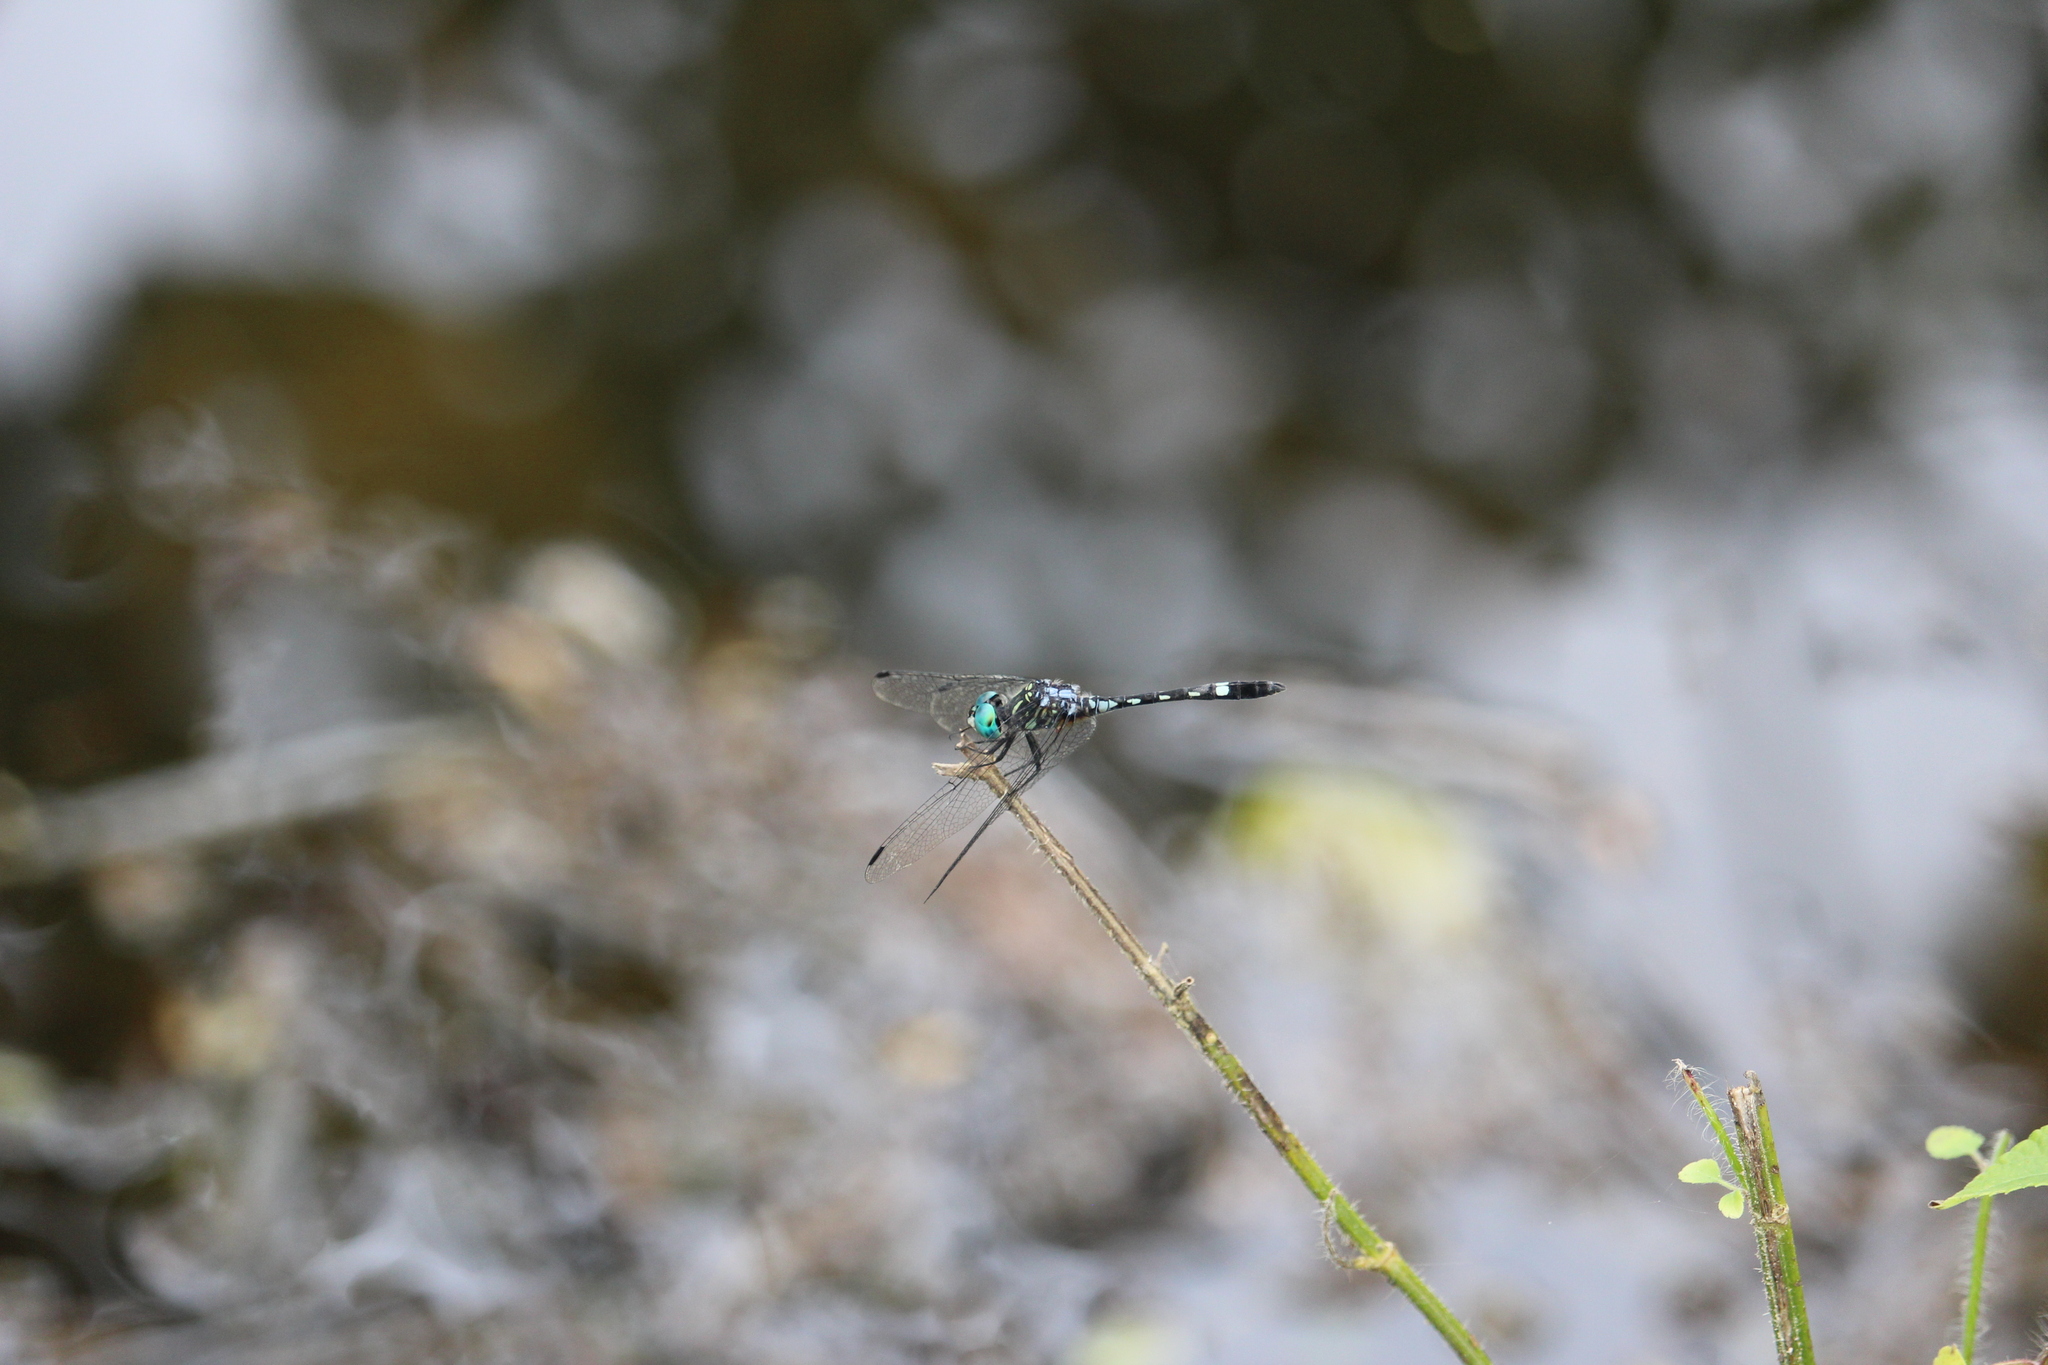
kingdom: Animalia
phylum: Arthropoda
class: Insecta
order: Odonata
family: Libellulidae
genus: Micrathyria
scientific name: Micrathyria hagenii
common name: Thornbush dasher
